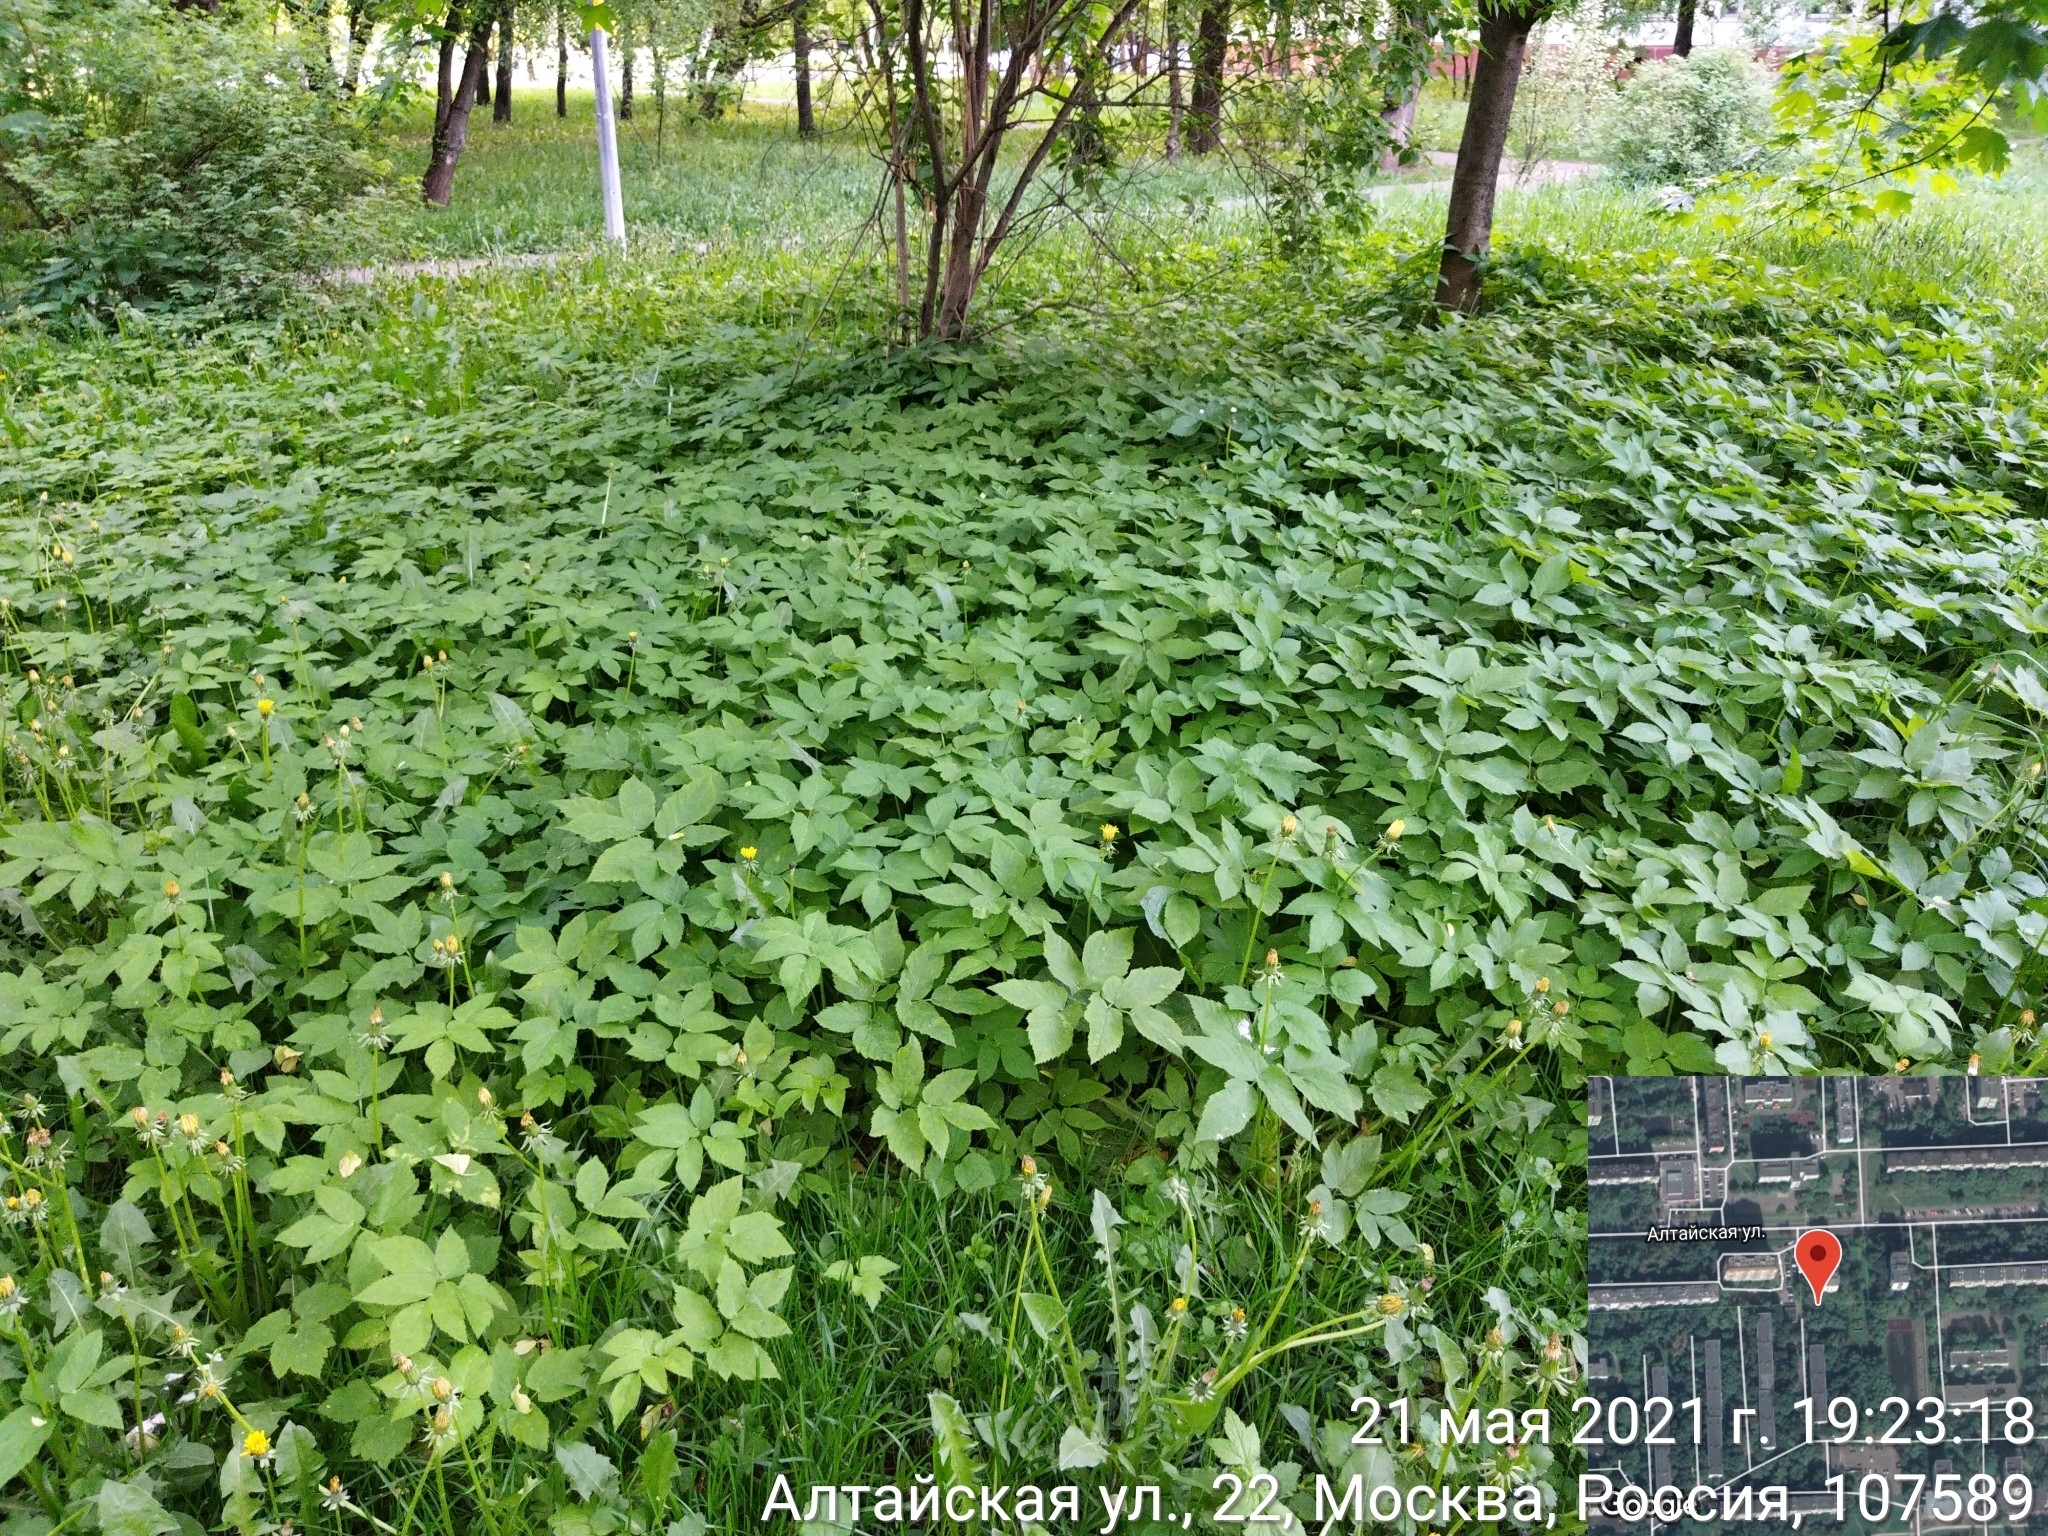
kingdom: Plantae
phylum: Tracheophyta
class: Magnoliopsida
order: Apiales
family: Apiaceae
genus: Aegopodium
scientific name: Aegopodium podagraria
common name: Ground-elder
